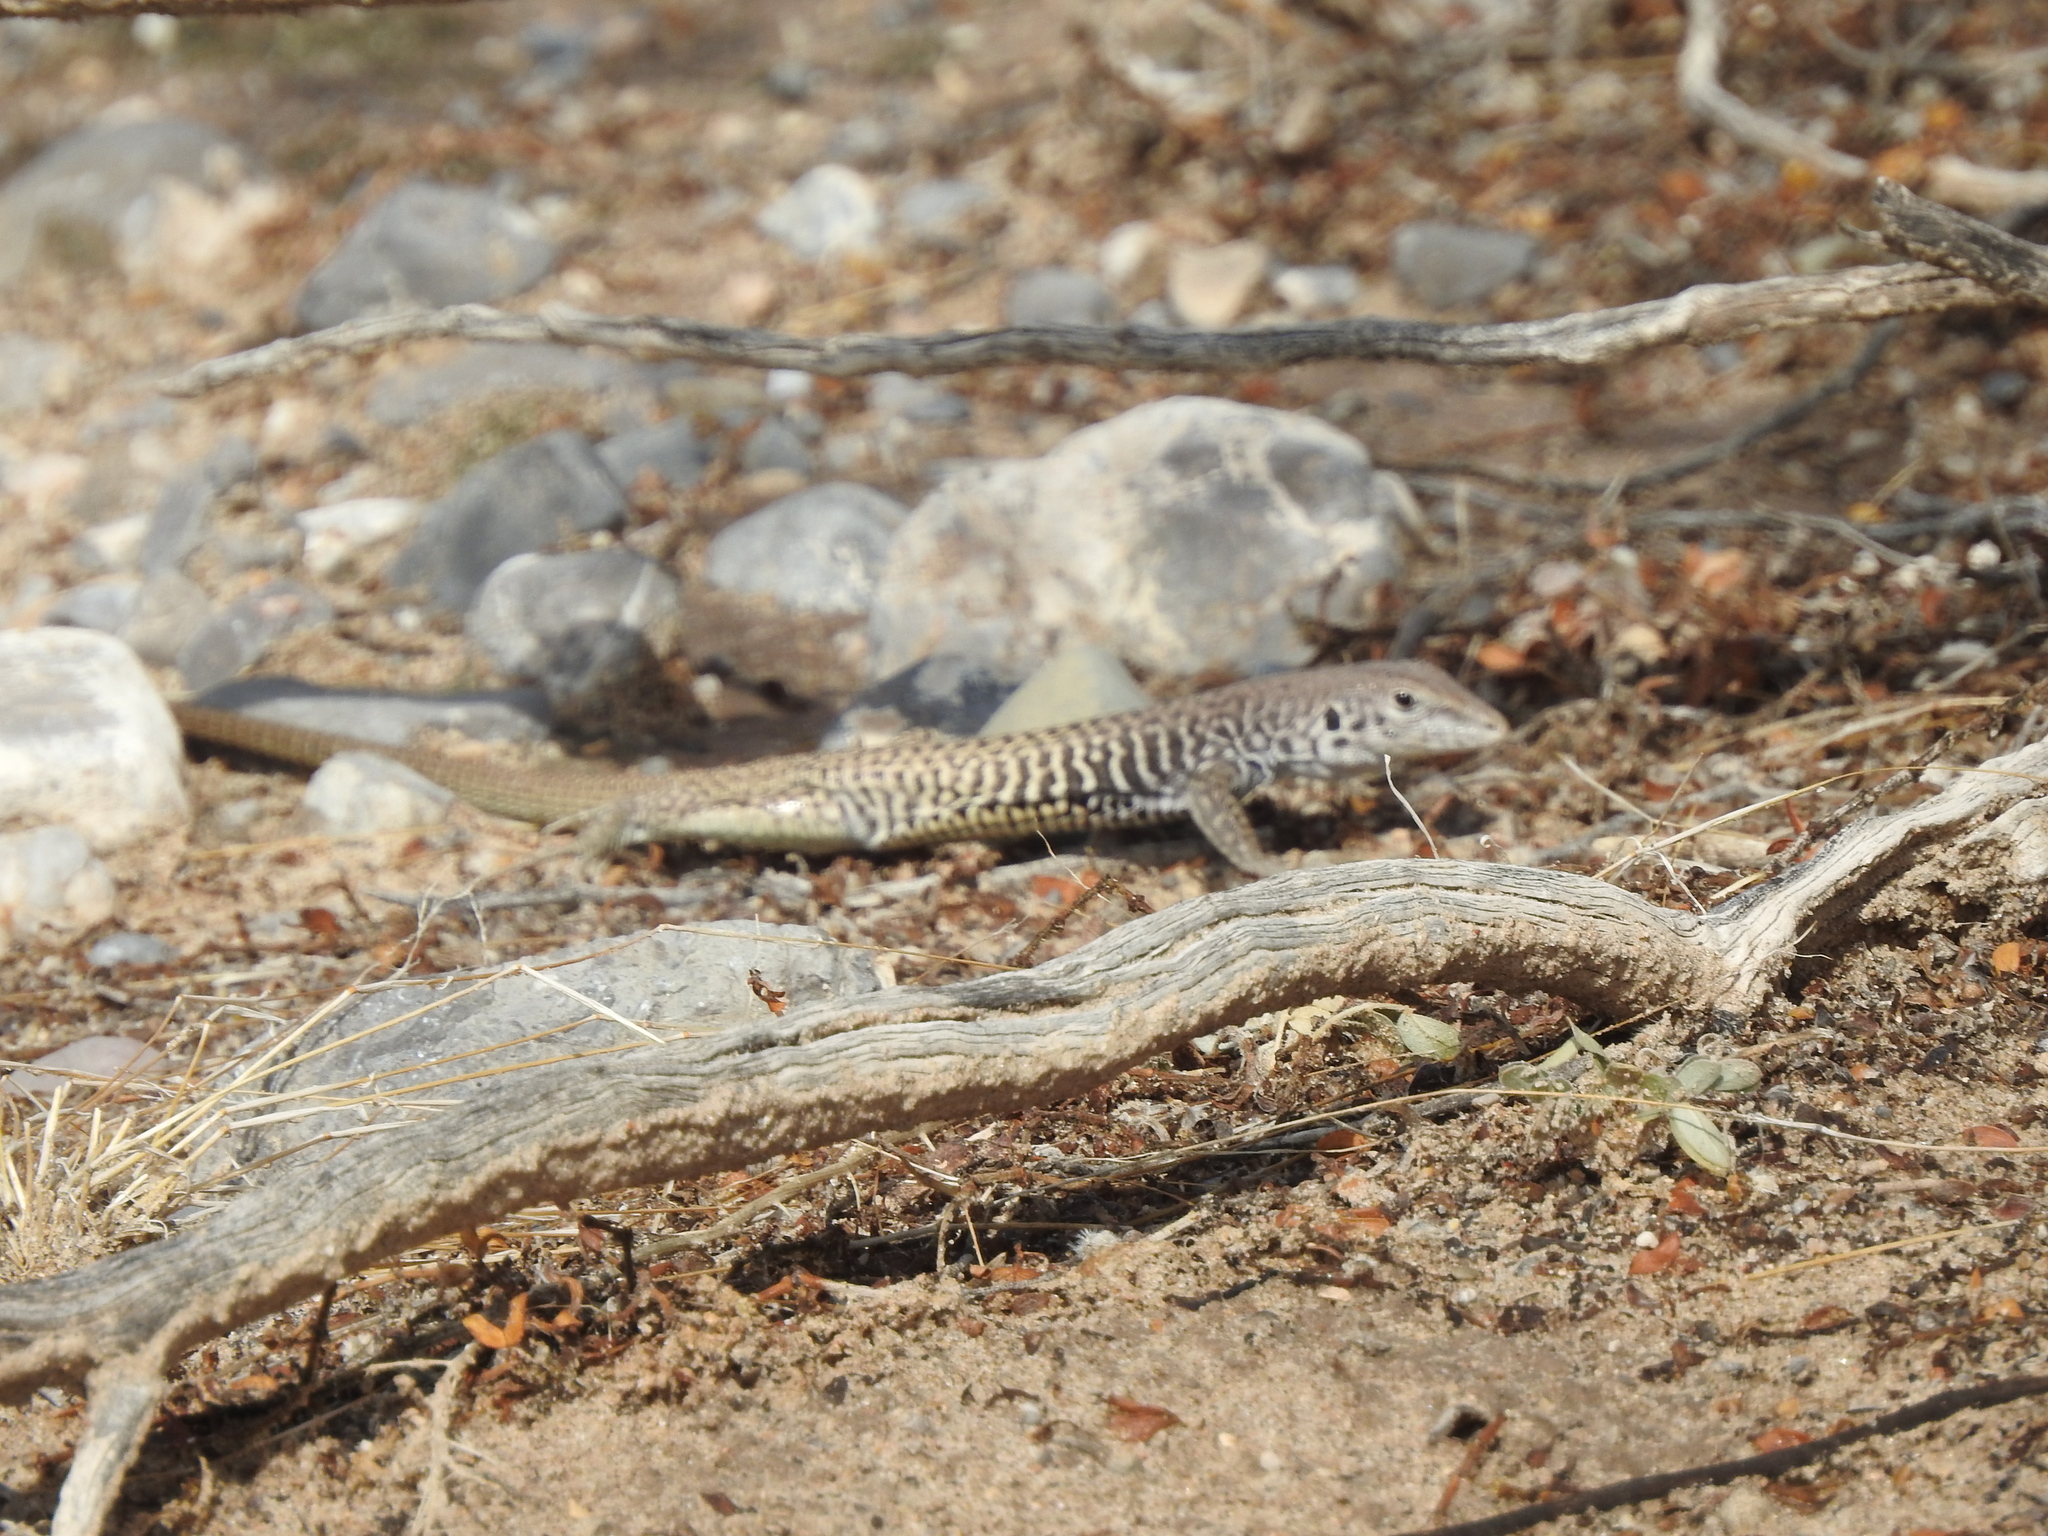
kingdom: Animalia
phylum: Chordata
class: Squamata
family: Teiidae
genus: Aspidoscelis
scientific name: Aspidoscelis marmoratus
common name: Eastern marbled whiptail [reticuloriens]
